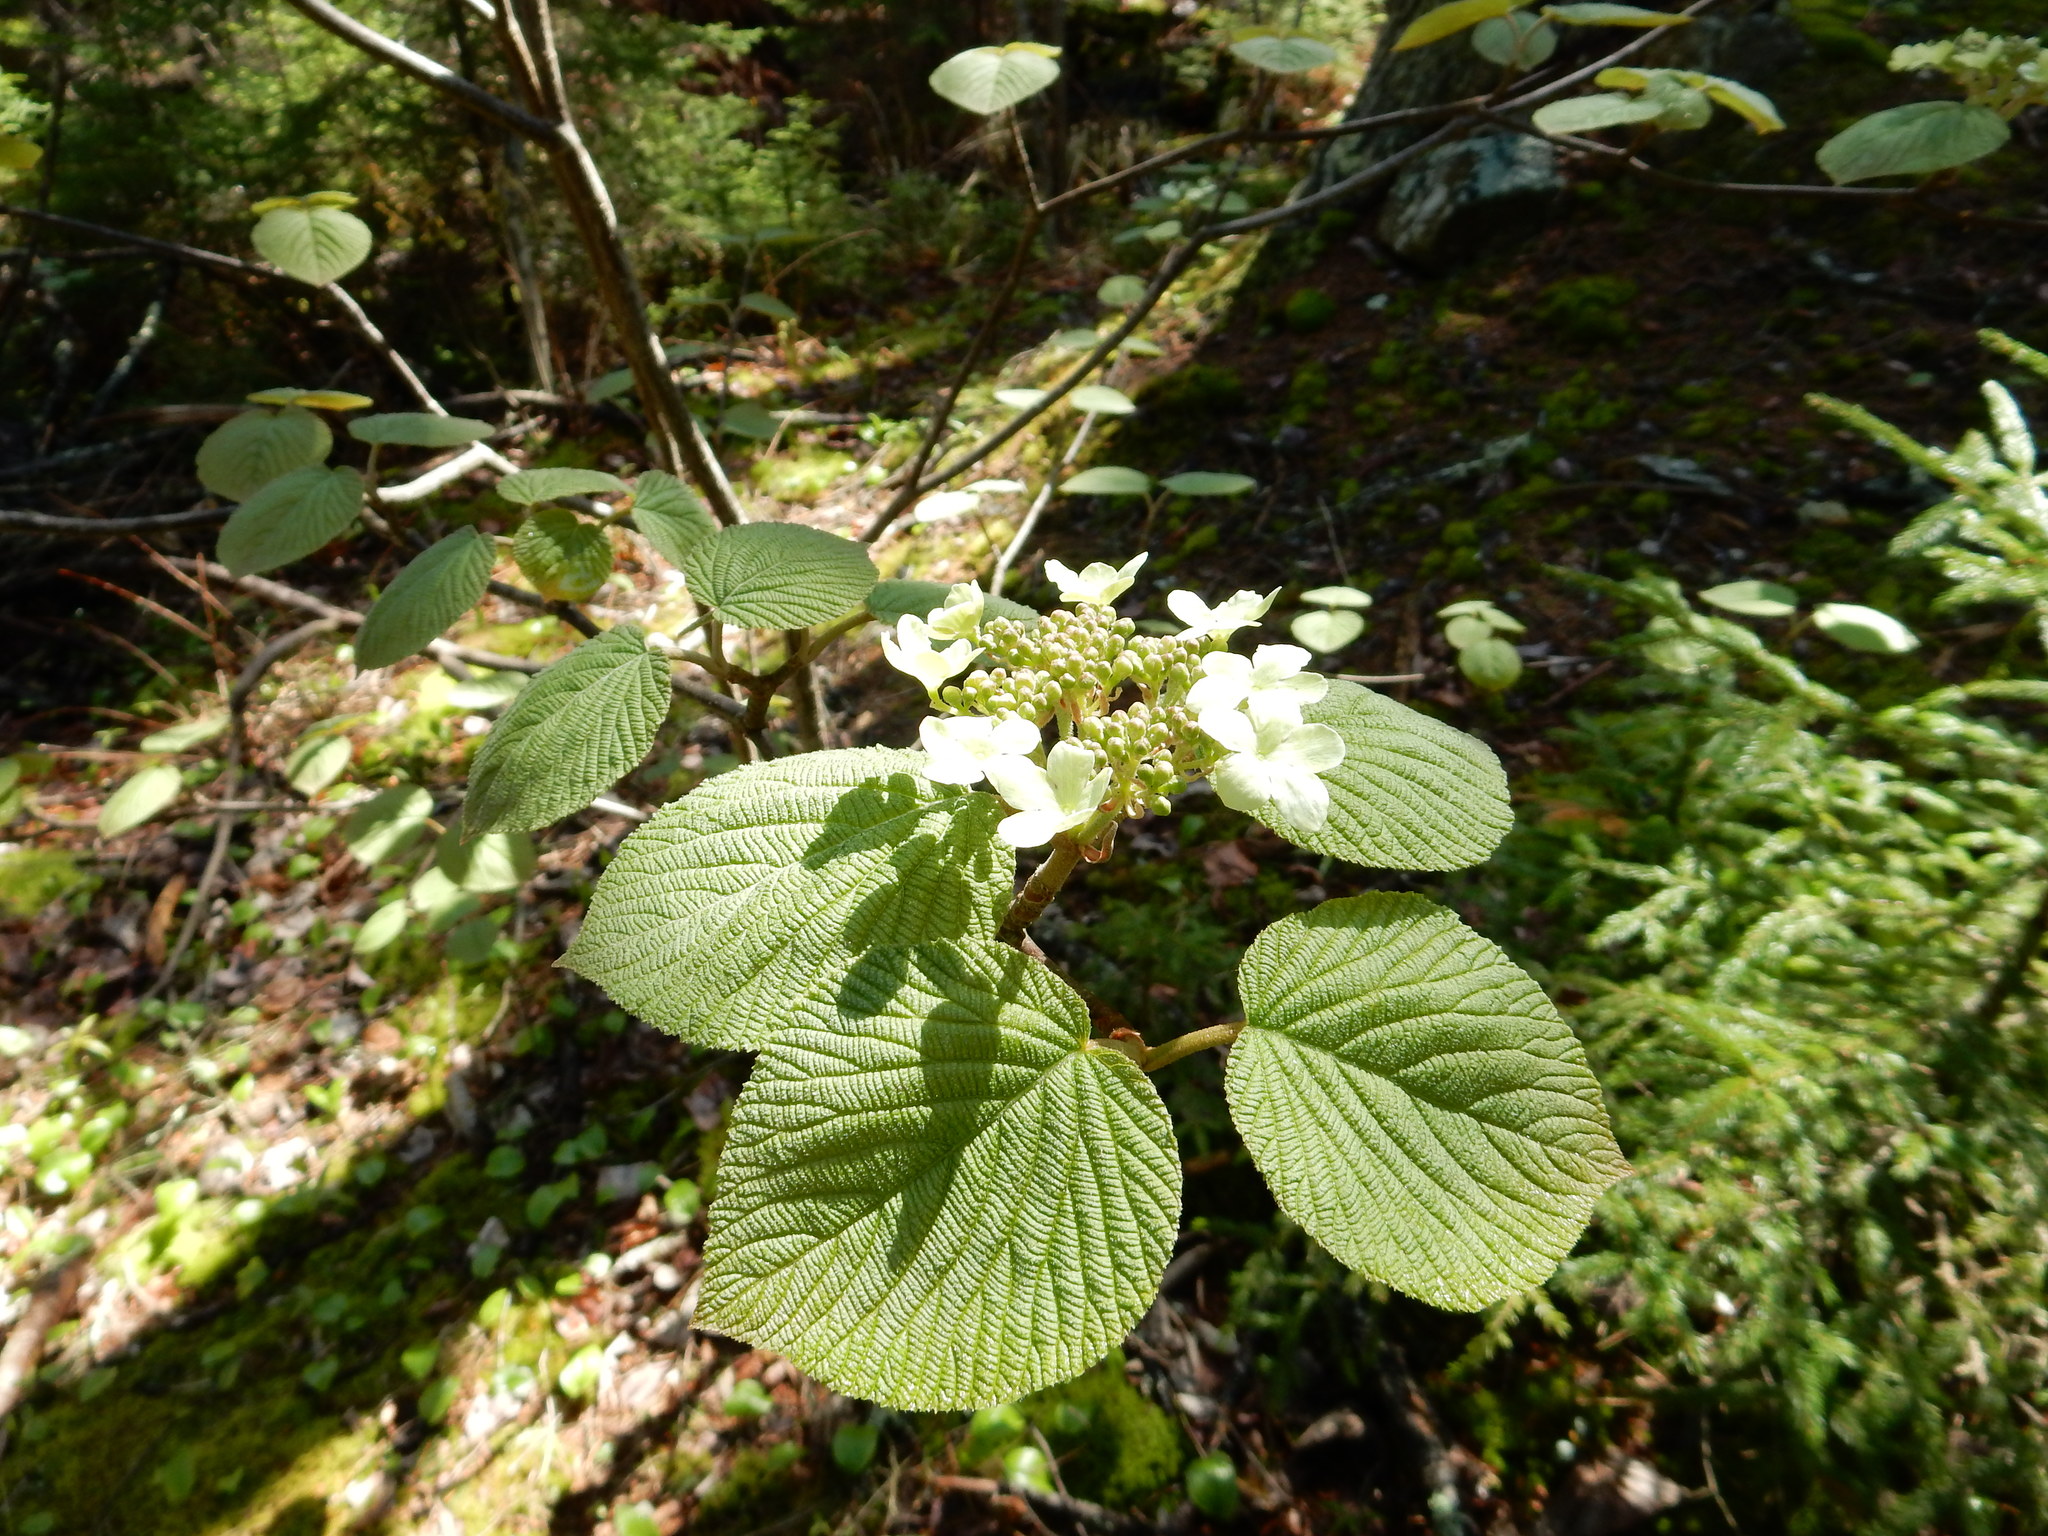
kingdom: Plantae
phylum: Tracheophyta
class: Magnoliopsida
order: Dipsacales
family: Viburnaceae
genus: Viburnum
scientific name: Viburnum lantanoides
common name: Hobblebush
